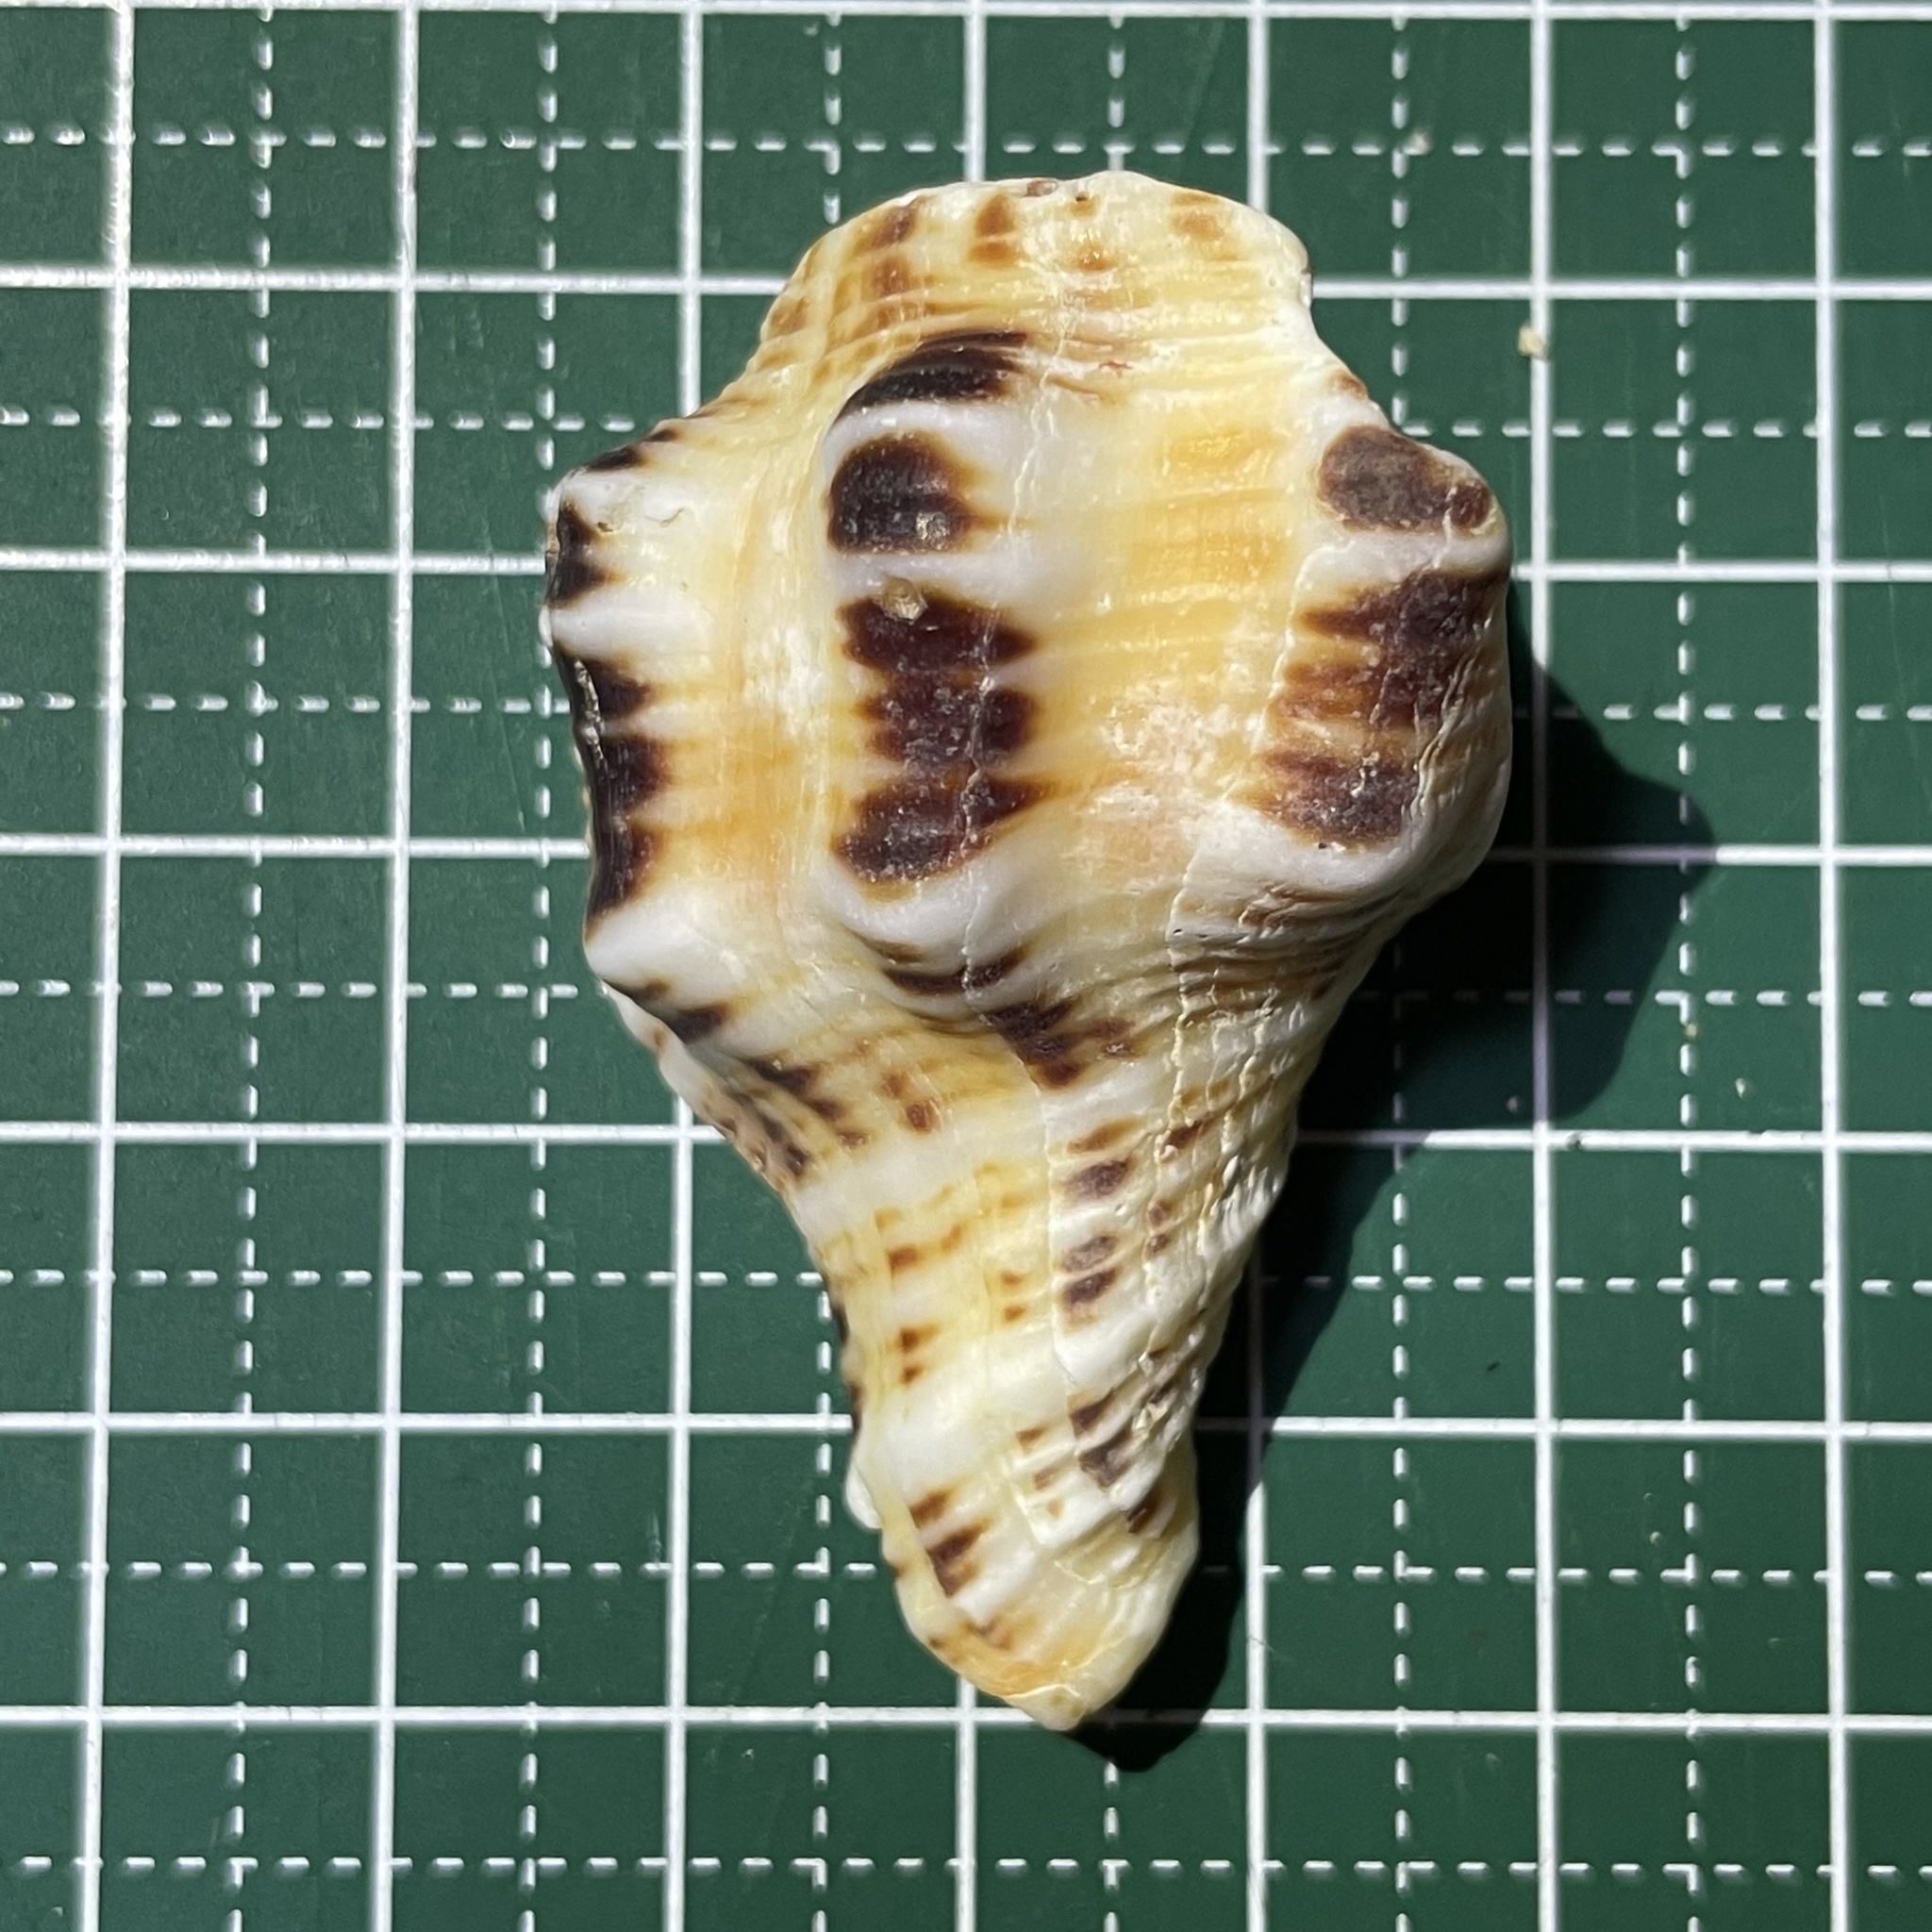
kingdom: Animalia
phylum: Mollusca
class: Gastropoda
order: Neogastropoda
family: Fasciolariidae
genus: Latirus
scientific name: Latirus polygonus
